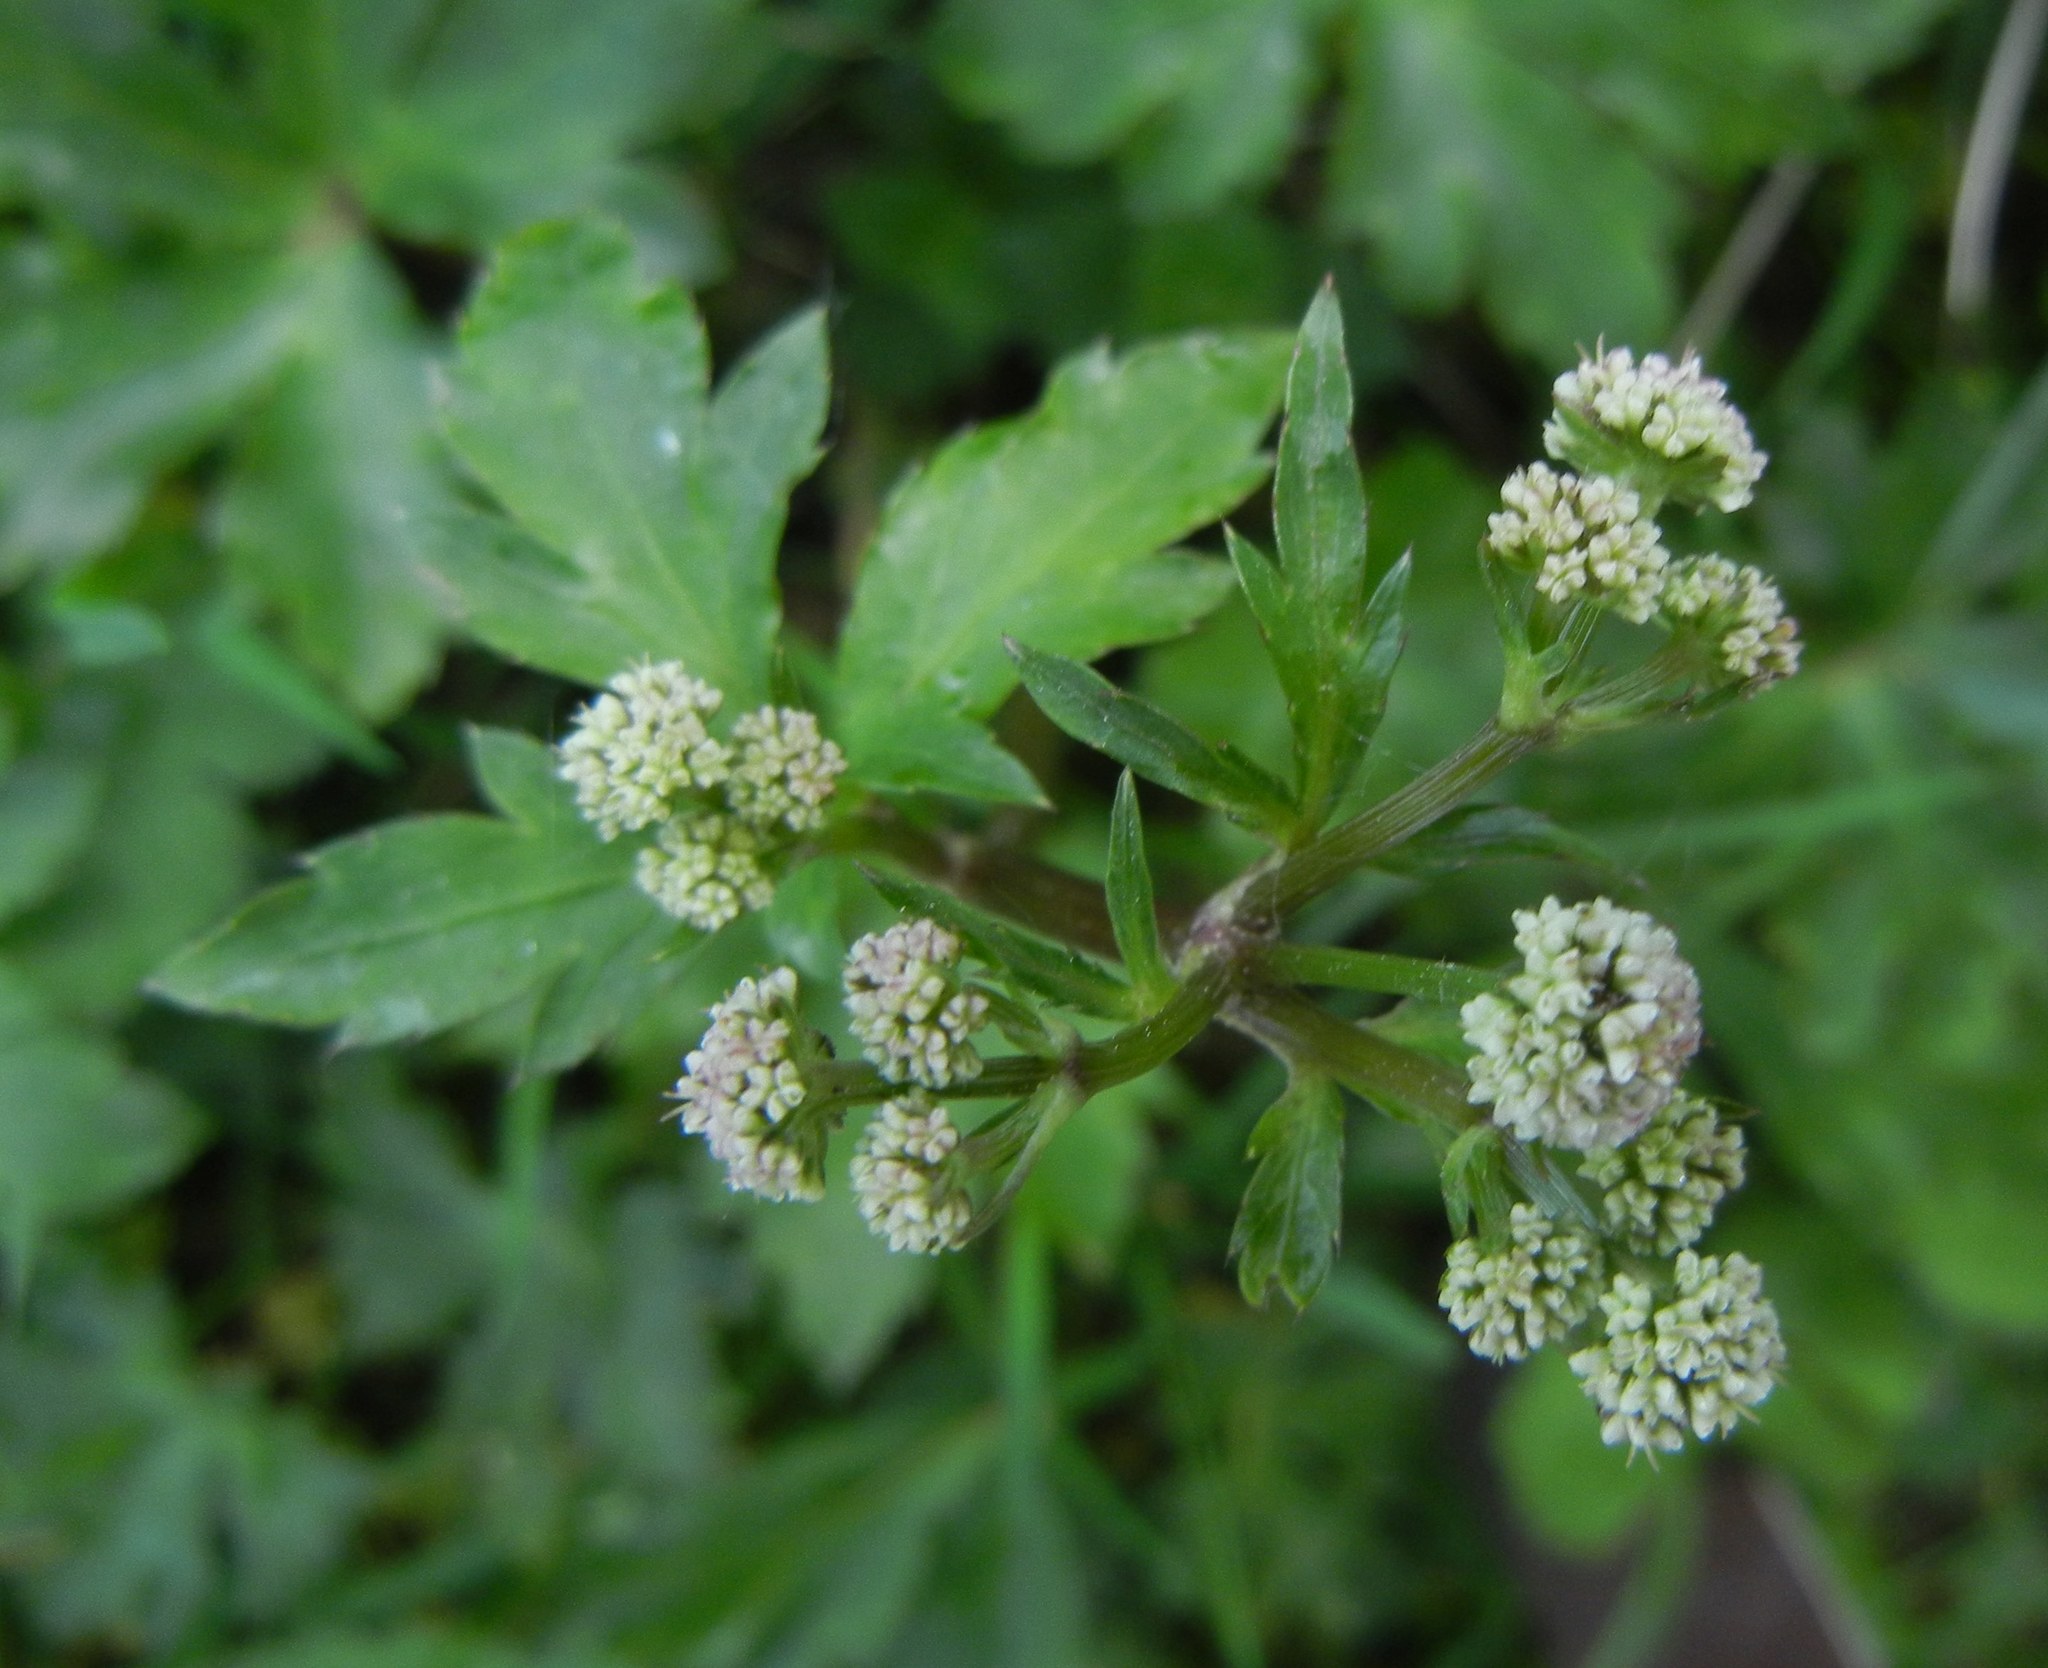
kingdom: Plantae
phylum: Tracheophyta
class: Magnoliopsida
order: Apiales
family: Apiaceae
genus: Sanicula
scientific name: Sanicula europaea
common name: Sanicle
